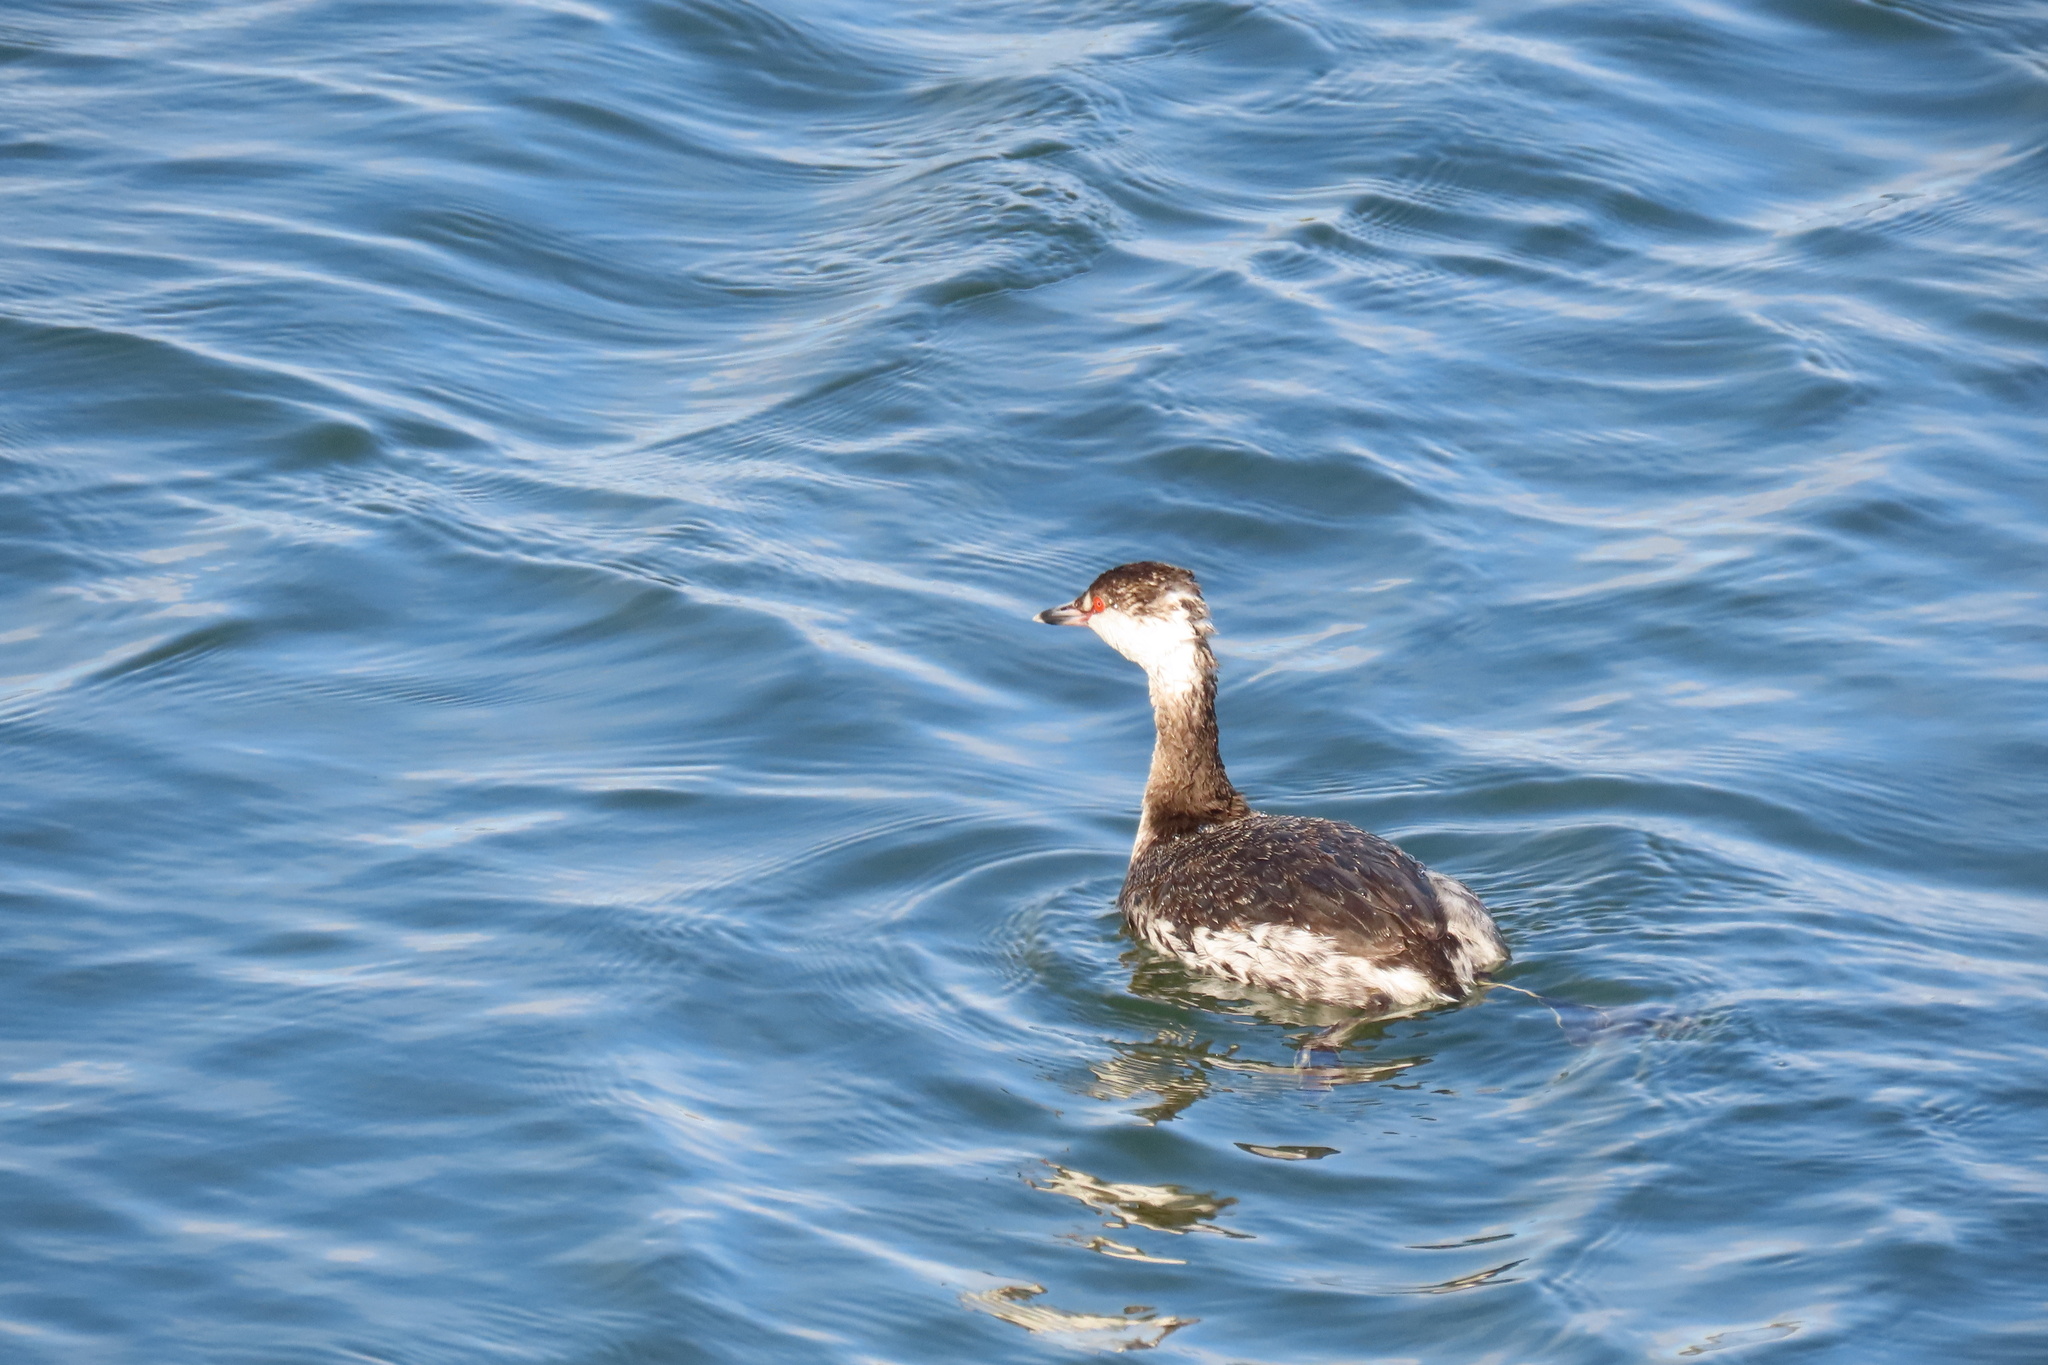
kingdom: Animalia
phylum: Chordata
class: Aves
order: Podicipediformes
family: Podicipedidae
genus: Podiceps
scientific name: Podiceps auritus
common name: Horned grebe
